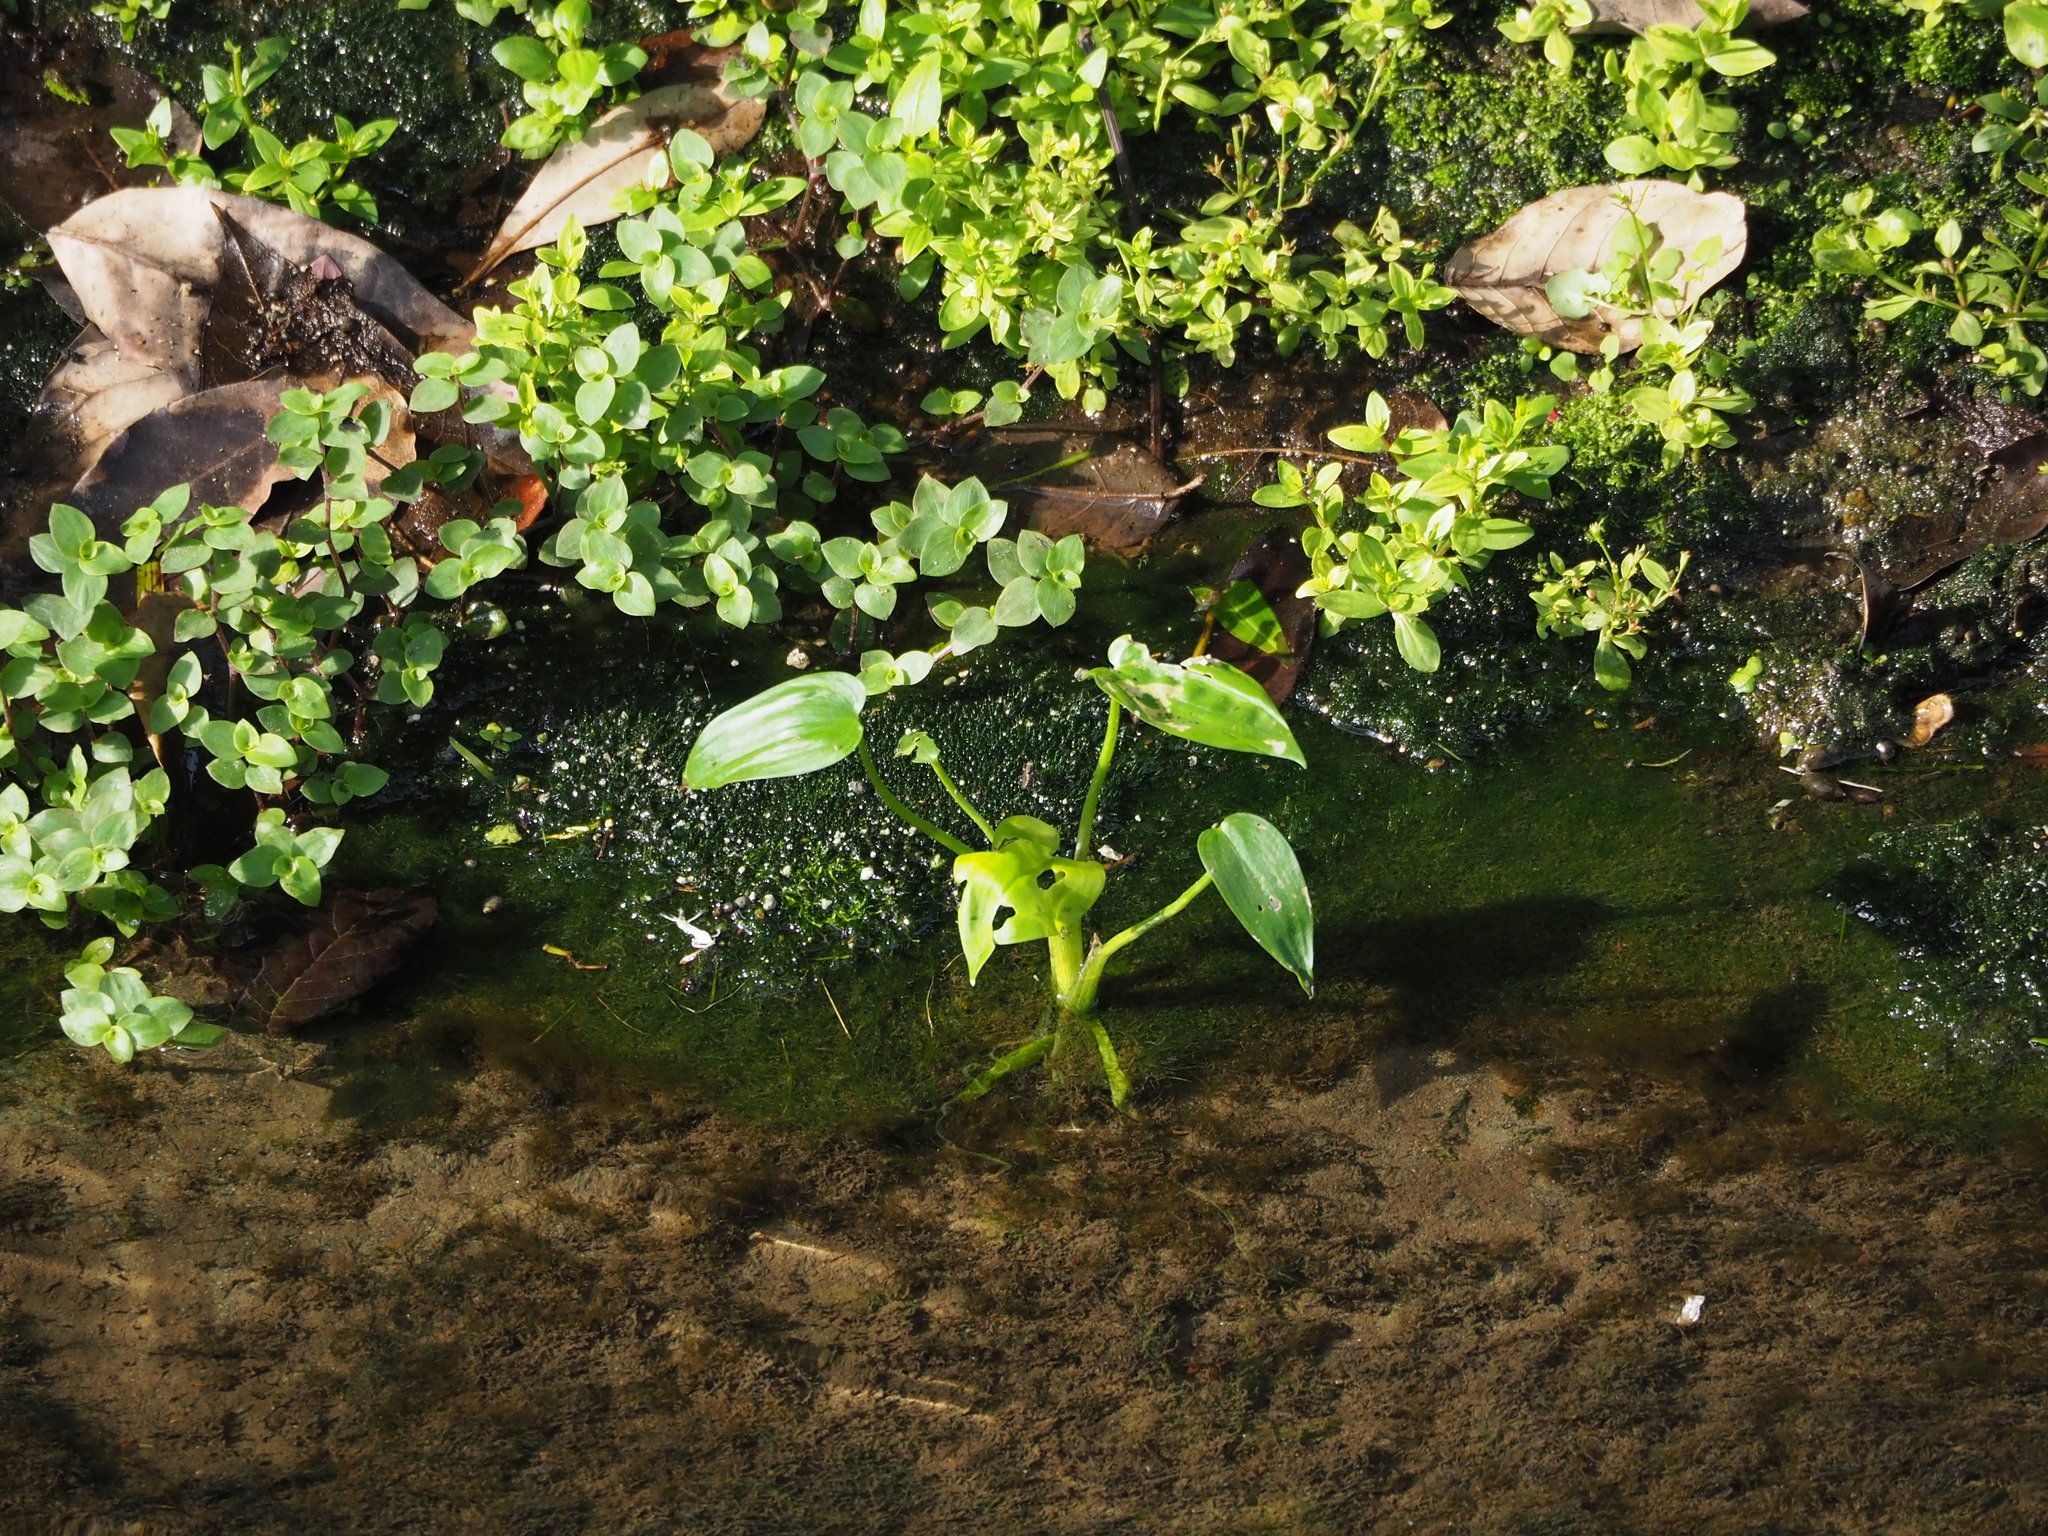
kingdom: Plantae
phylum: Tracheophyta
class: Liliopsida
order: Commelinales
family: Pontederiaceae
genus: Pontederia
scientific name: Pontederia vaginalis
